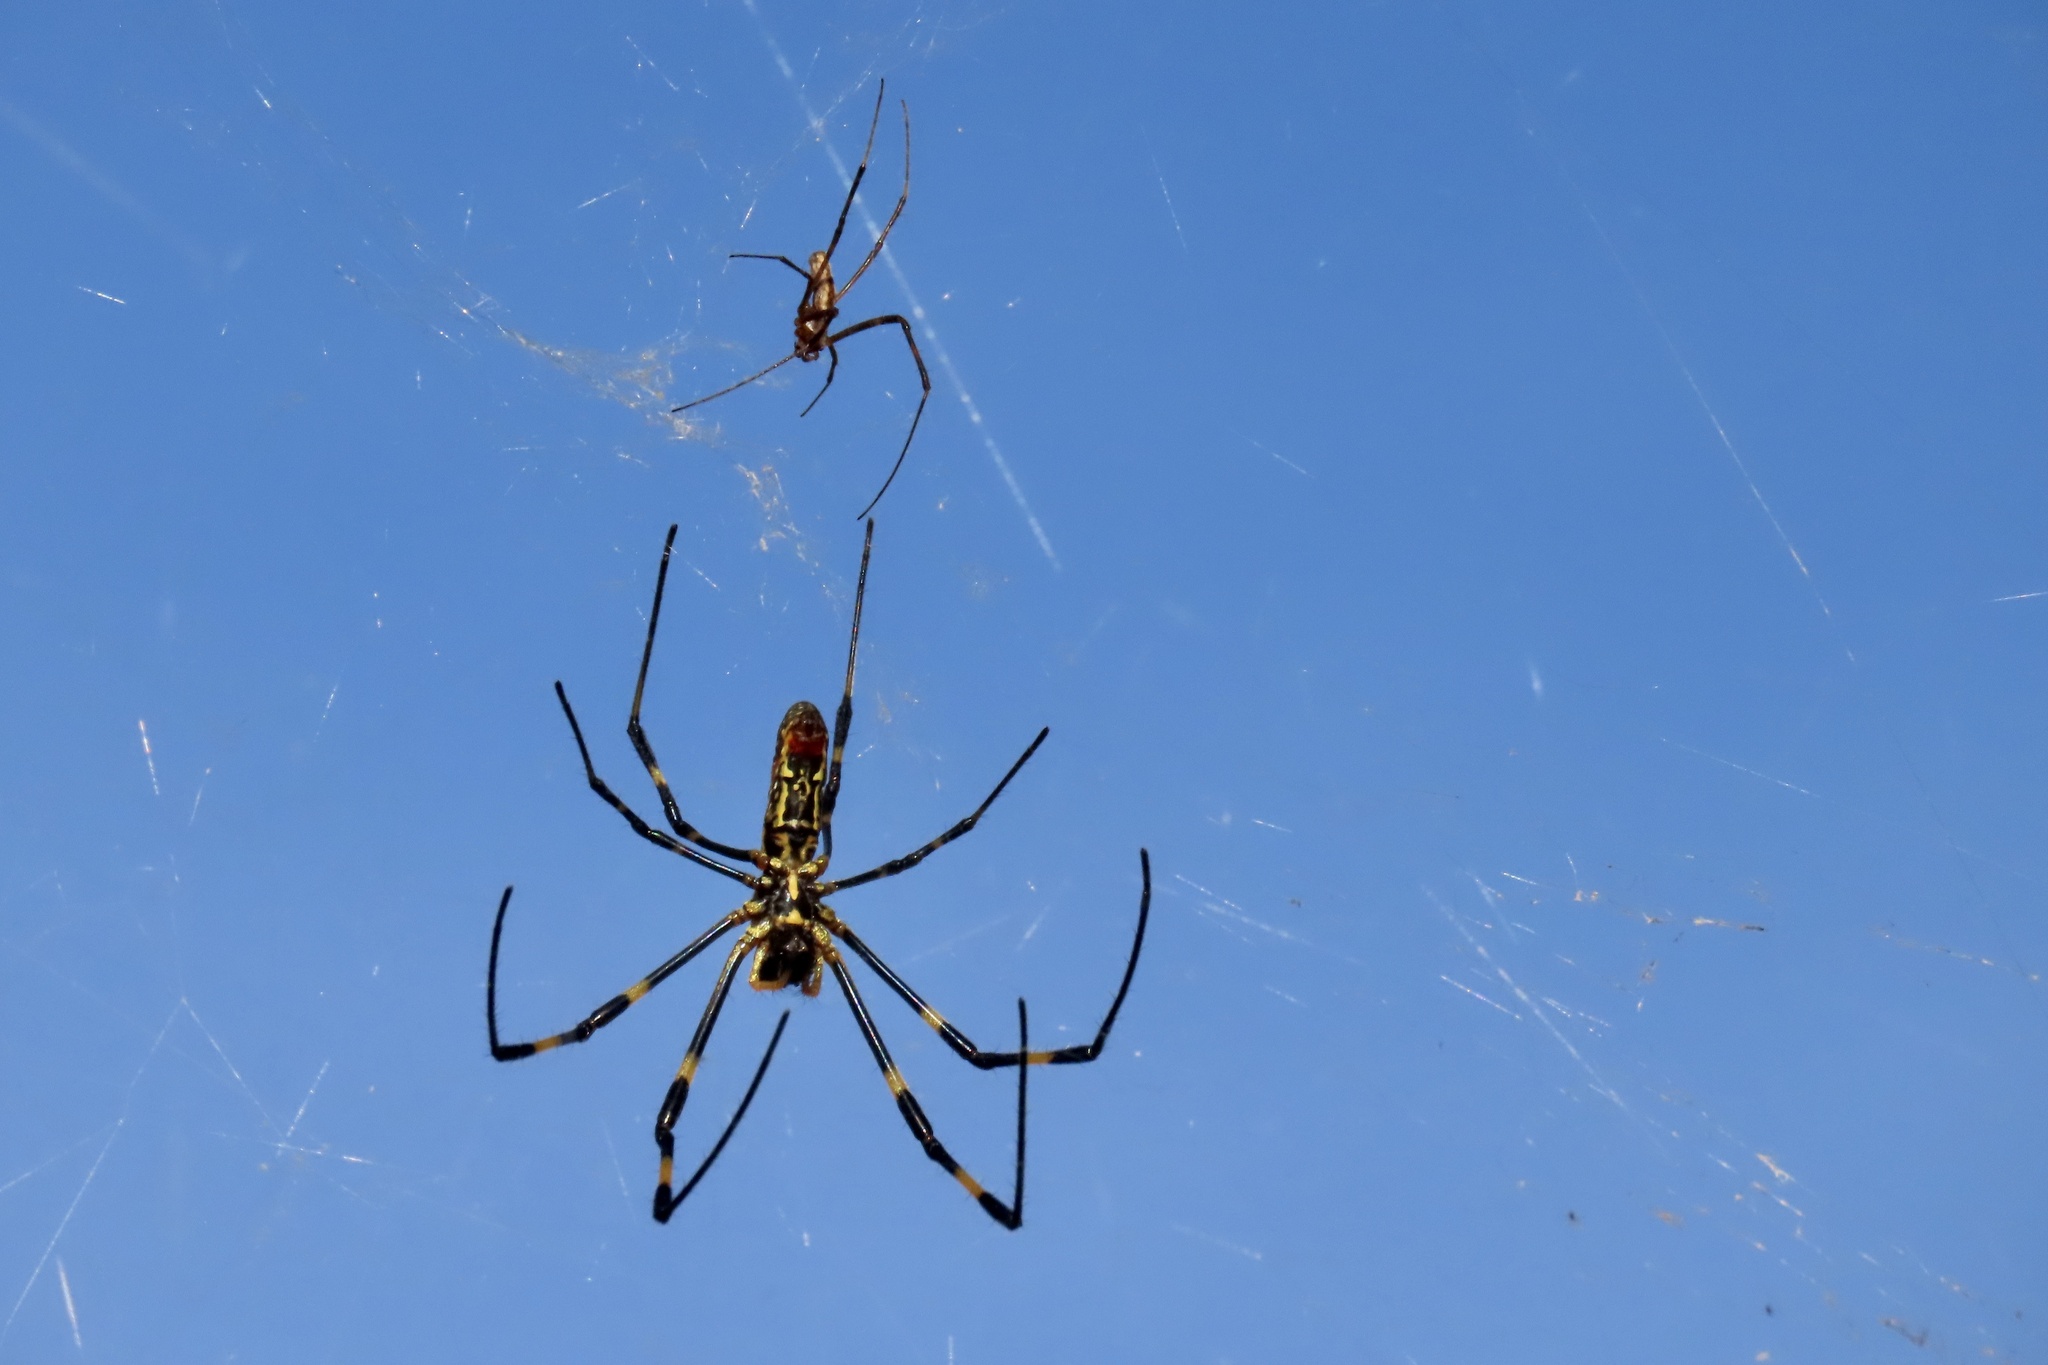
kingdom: Animalia
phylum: Arthropoda
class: Arachnida
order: Araneae
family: Araneidae
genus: Trichonephila
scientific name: Trichonephila clavata
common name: Jorō spider
